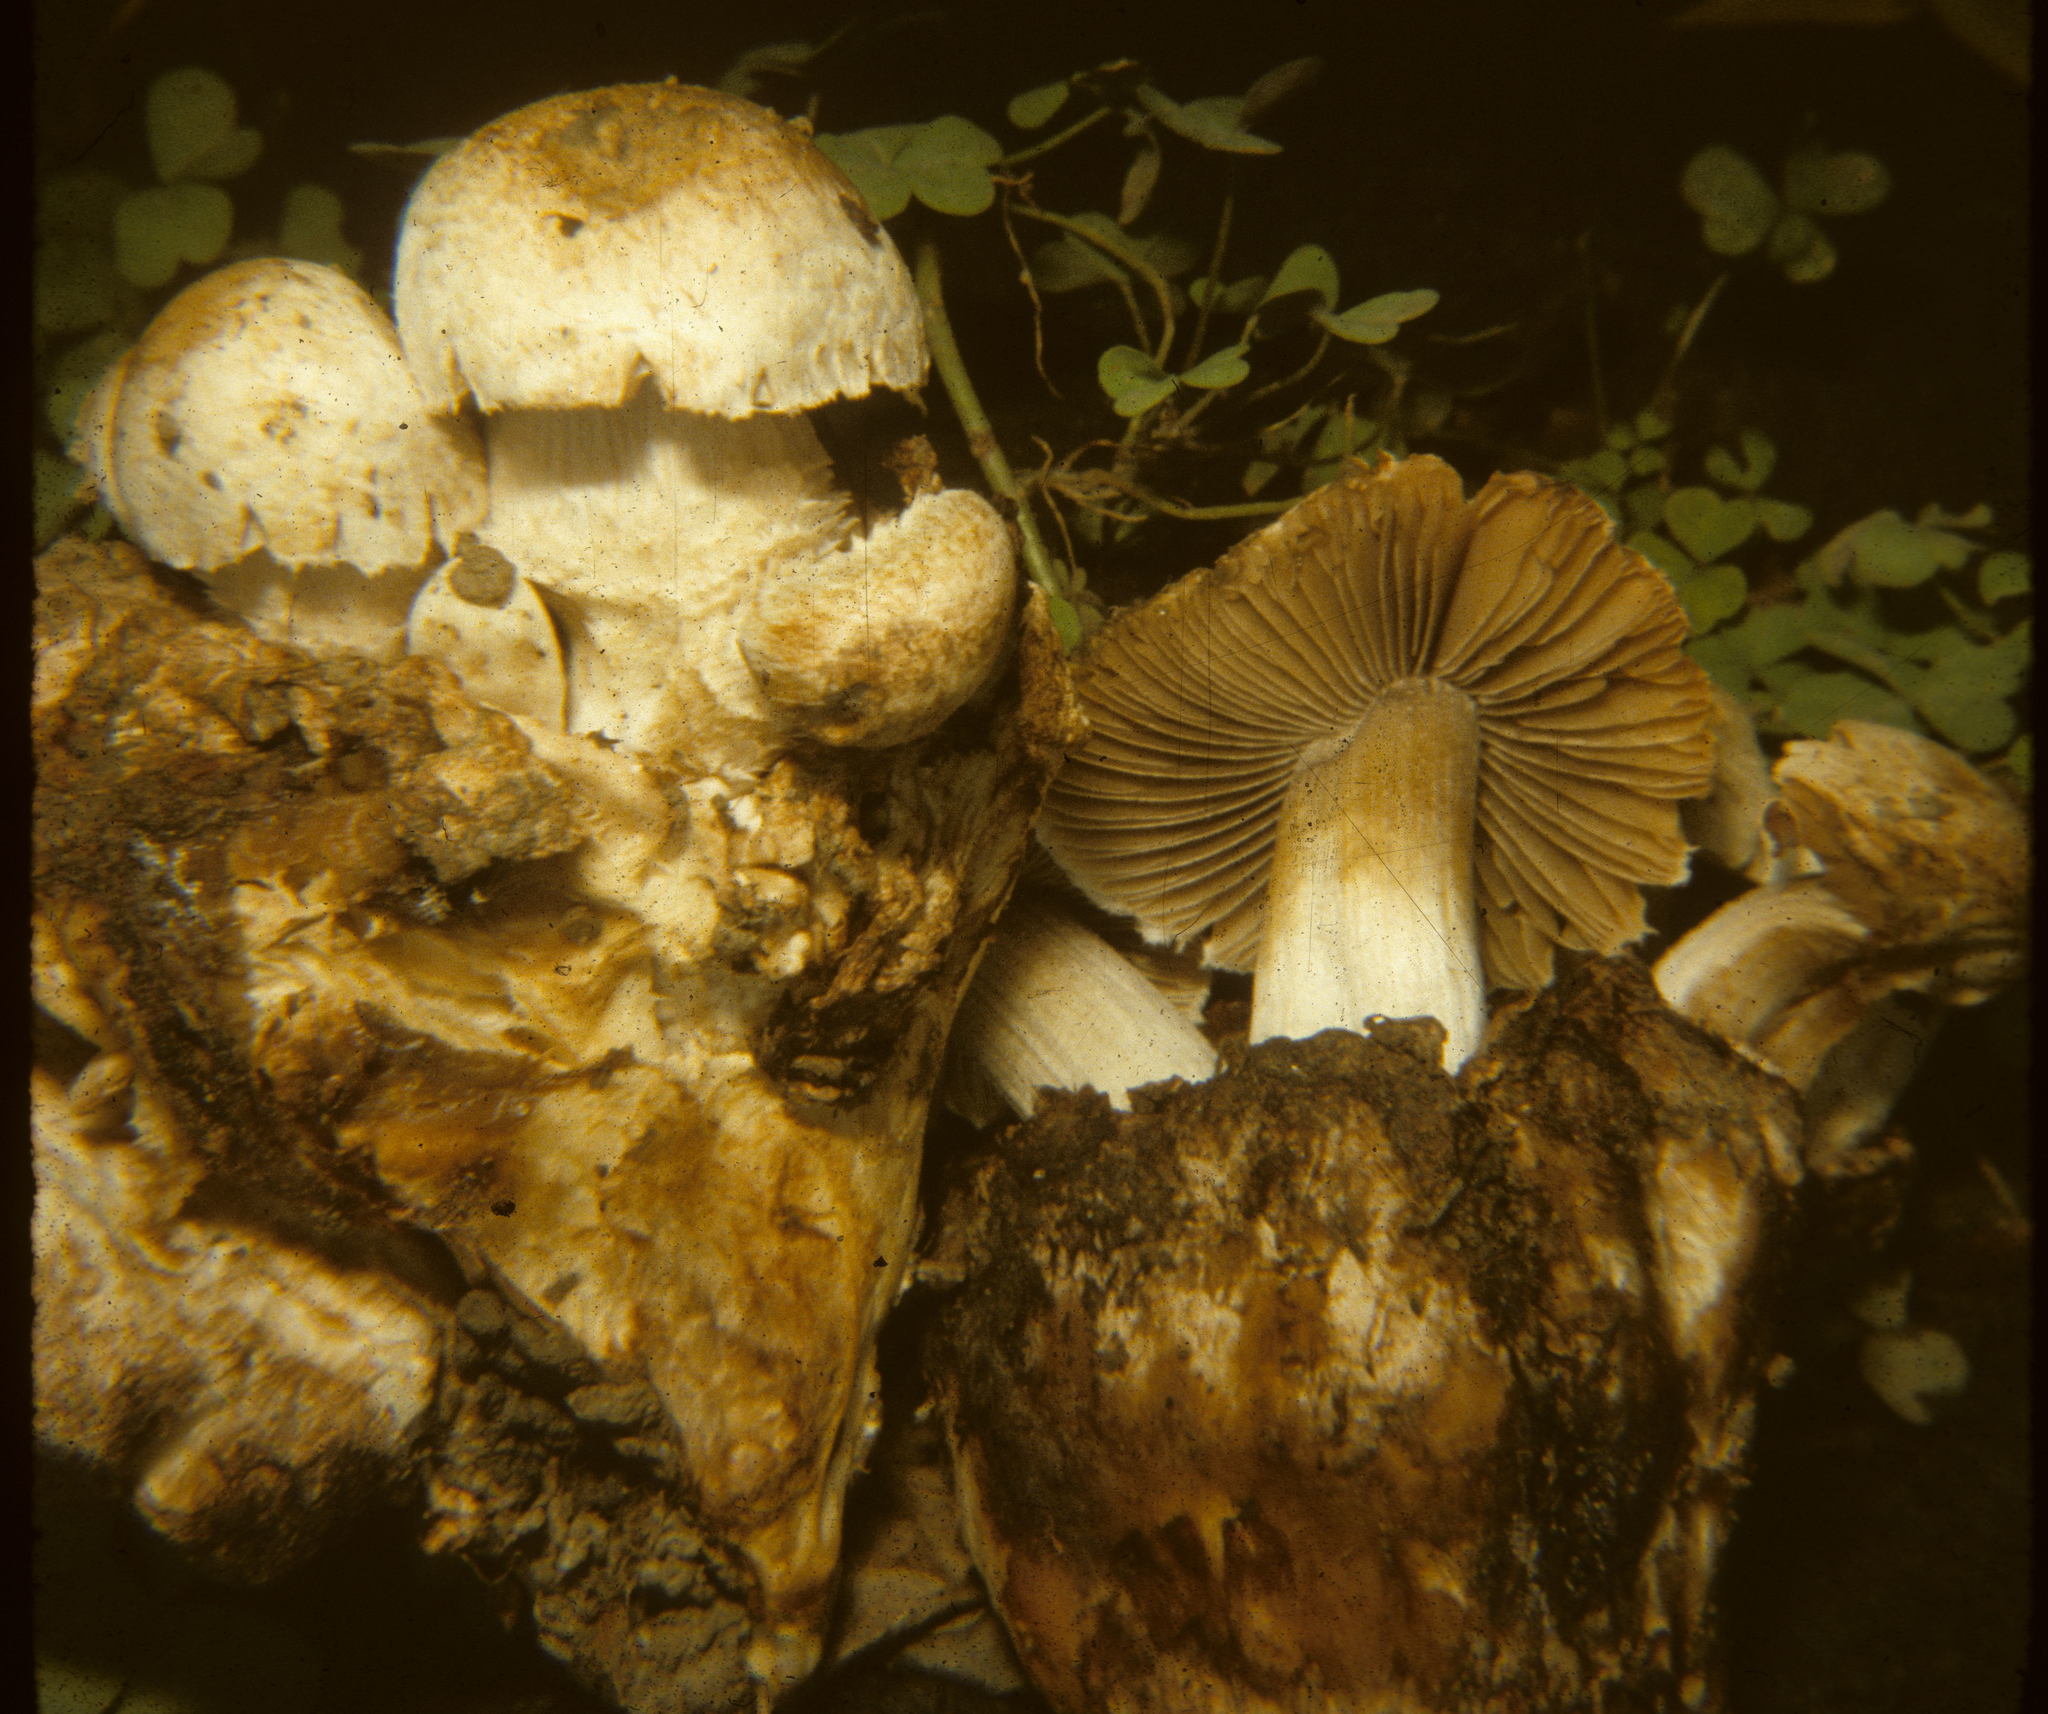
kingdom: Fungi
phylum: Basidiomycota
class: Agaricomycetes
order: Agaricales
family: Psathyrellaceae
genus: Psathyrella
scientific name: Psathyrella epimyces
